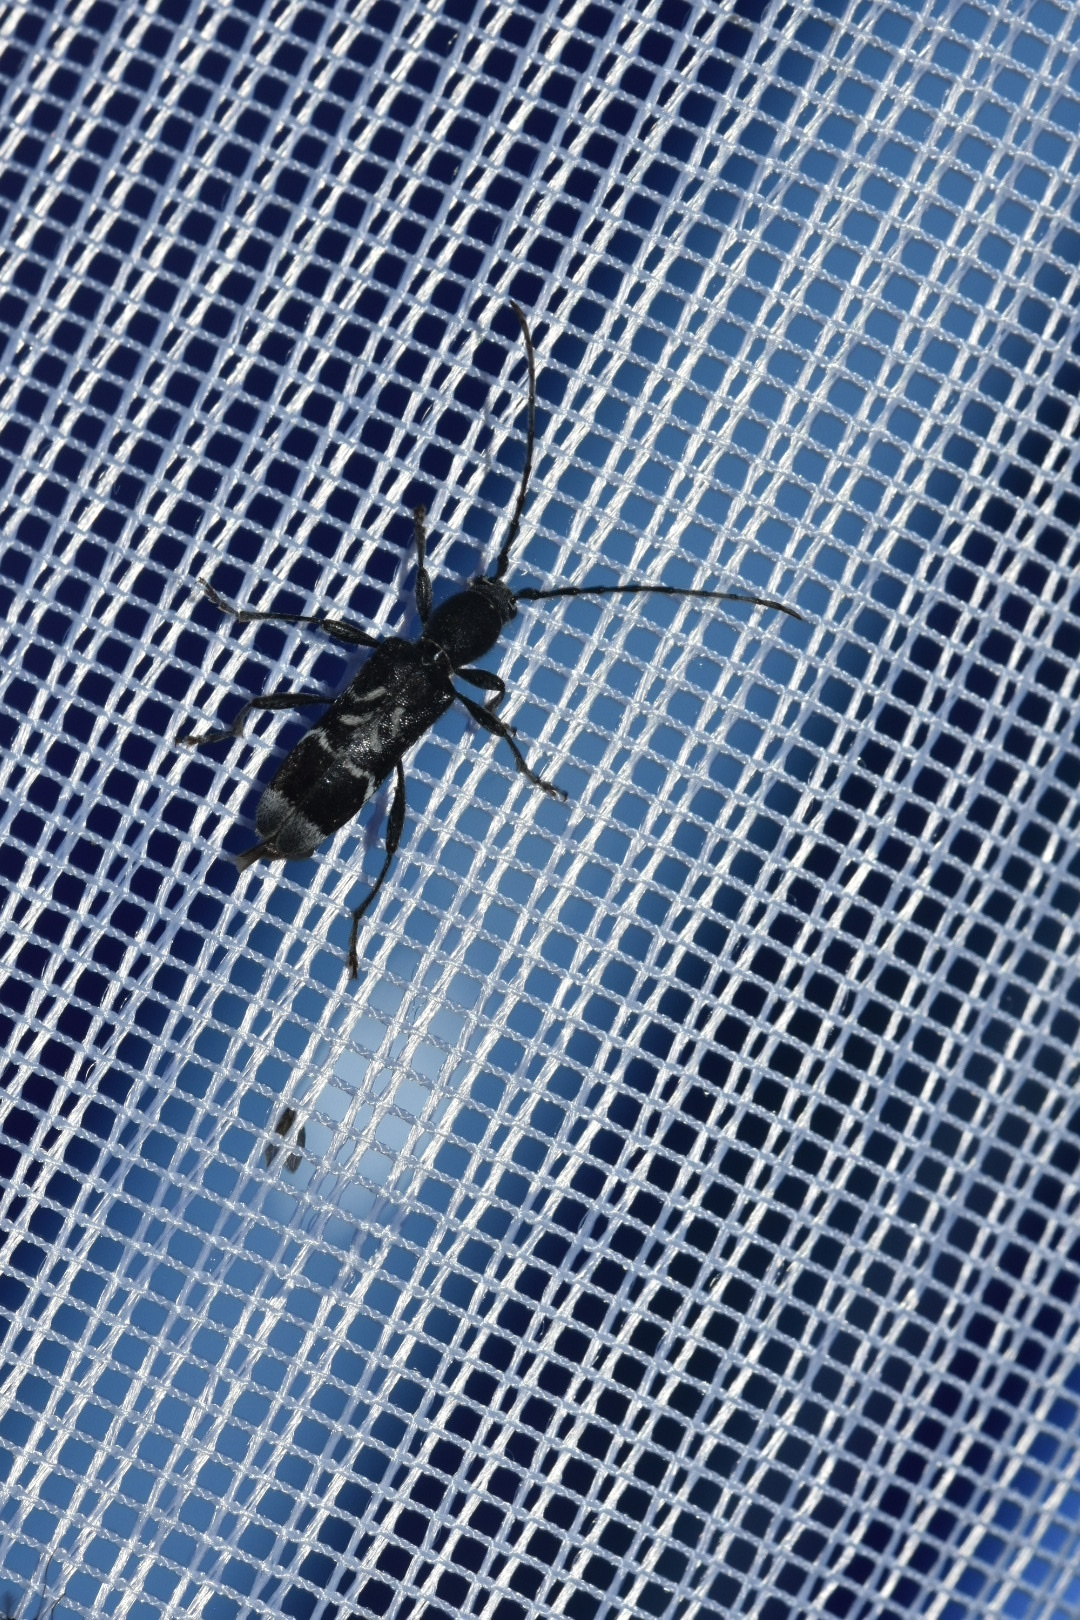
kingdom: Animalia
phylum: Arthropoda
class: Insecta
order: Coleoptera
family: Cerambycidae
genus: Anaglyptus
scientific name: Anaglyptus mysticus
